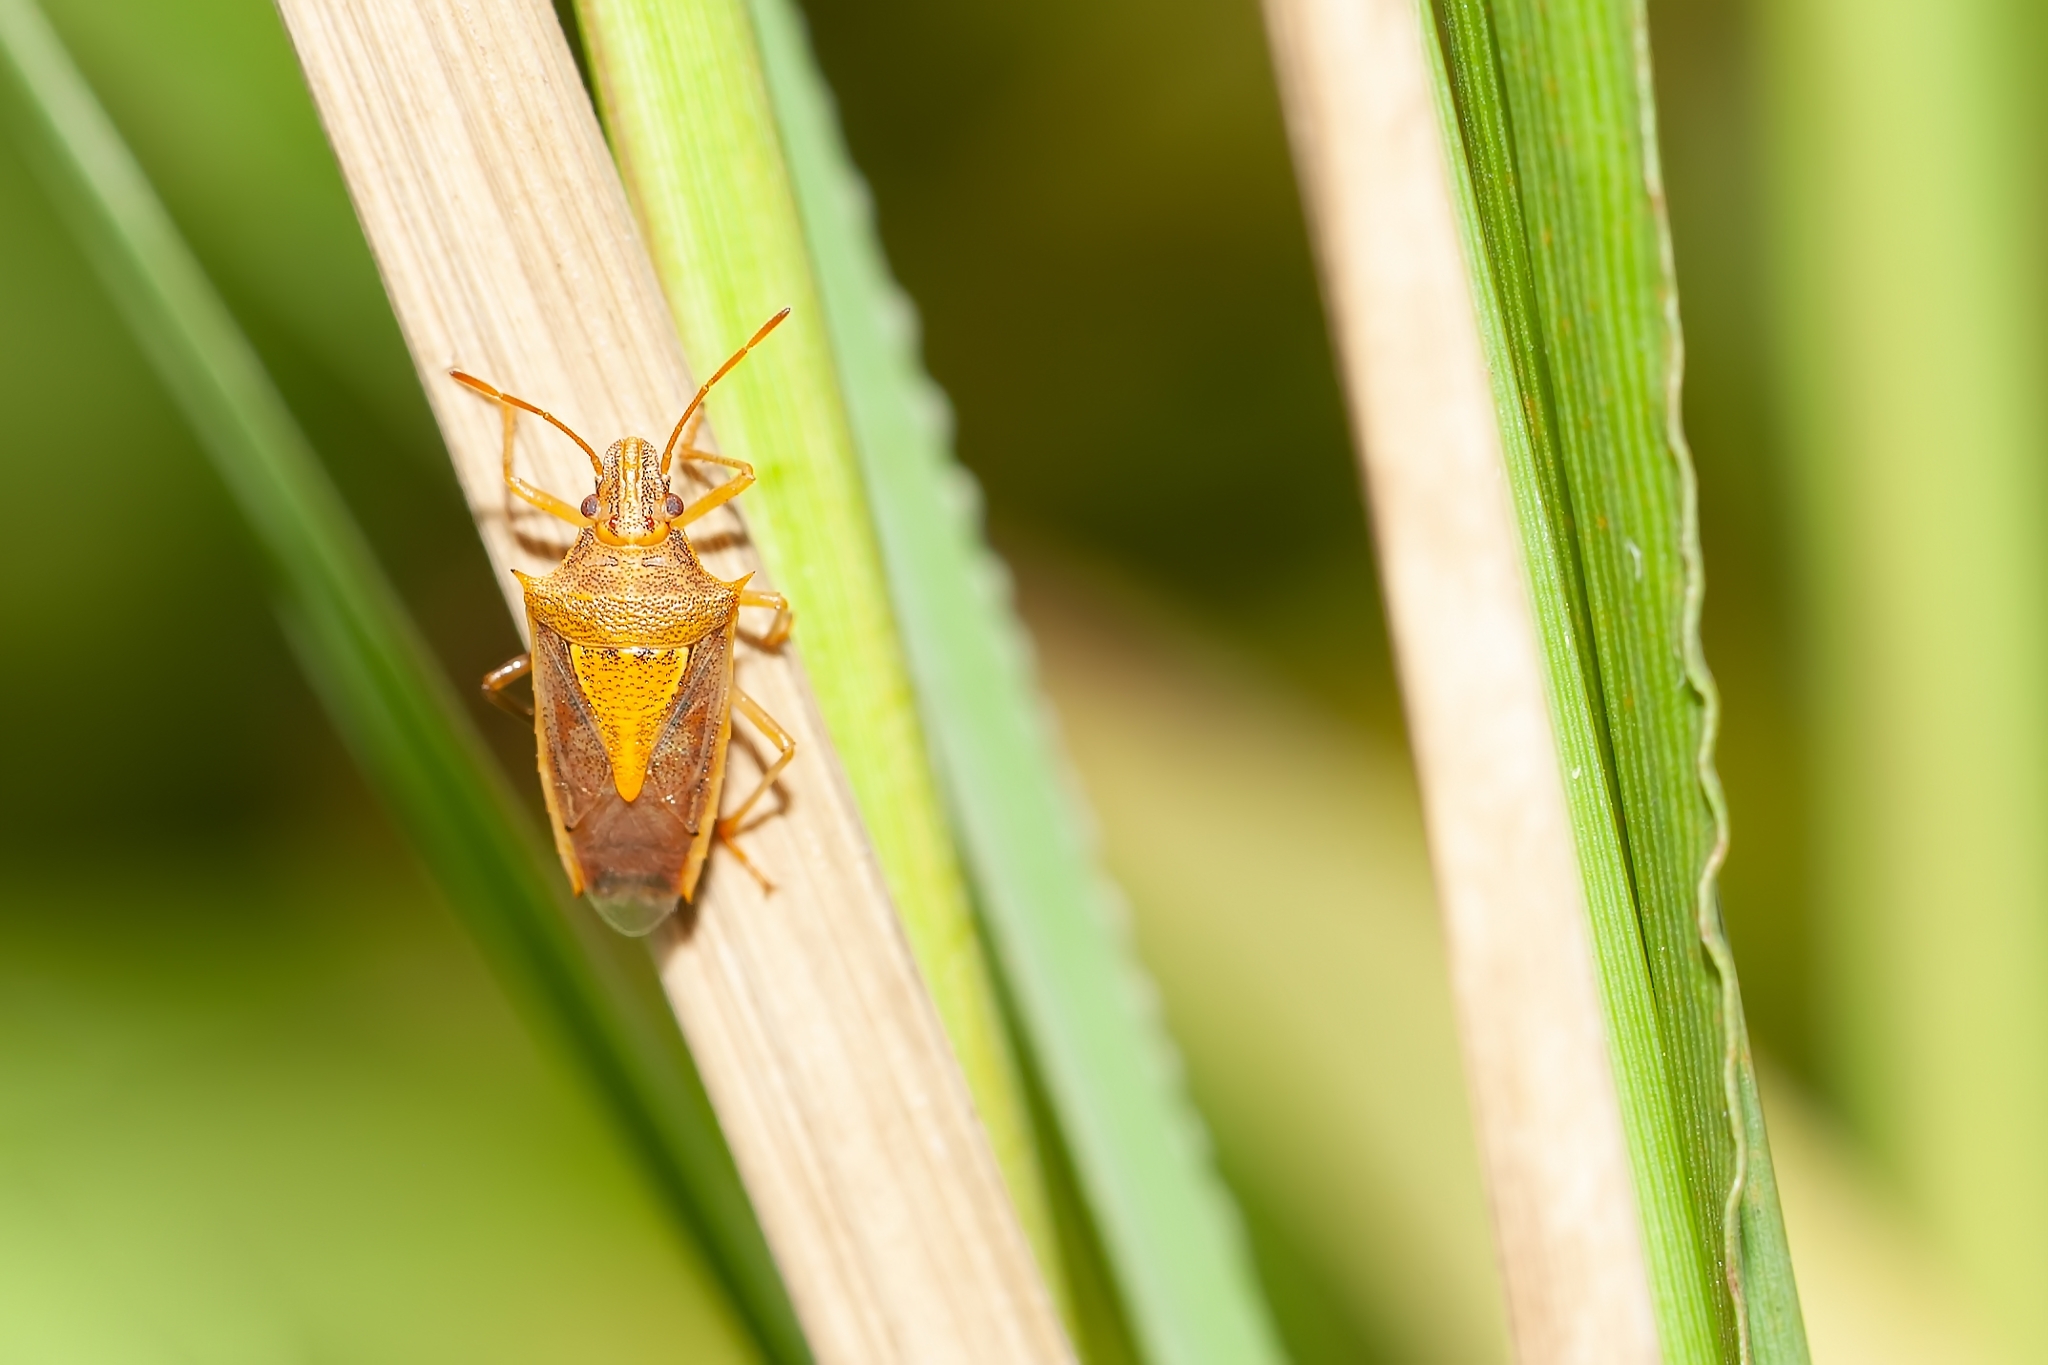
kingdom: Animalia
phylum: Arthropoda
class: Insecta
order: Hemiptera
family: Pentatomidae
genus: Oebalus
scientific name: Oebalus pugnax
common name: Rice stink bug
